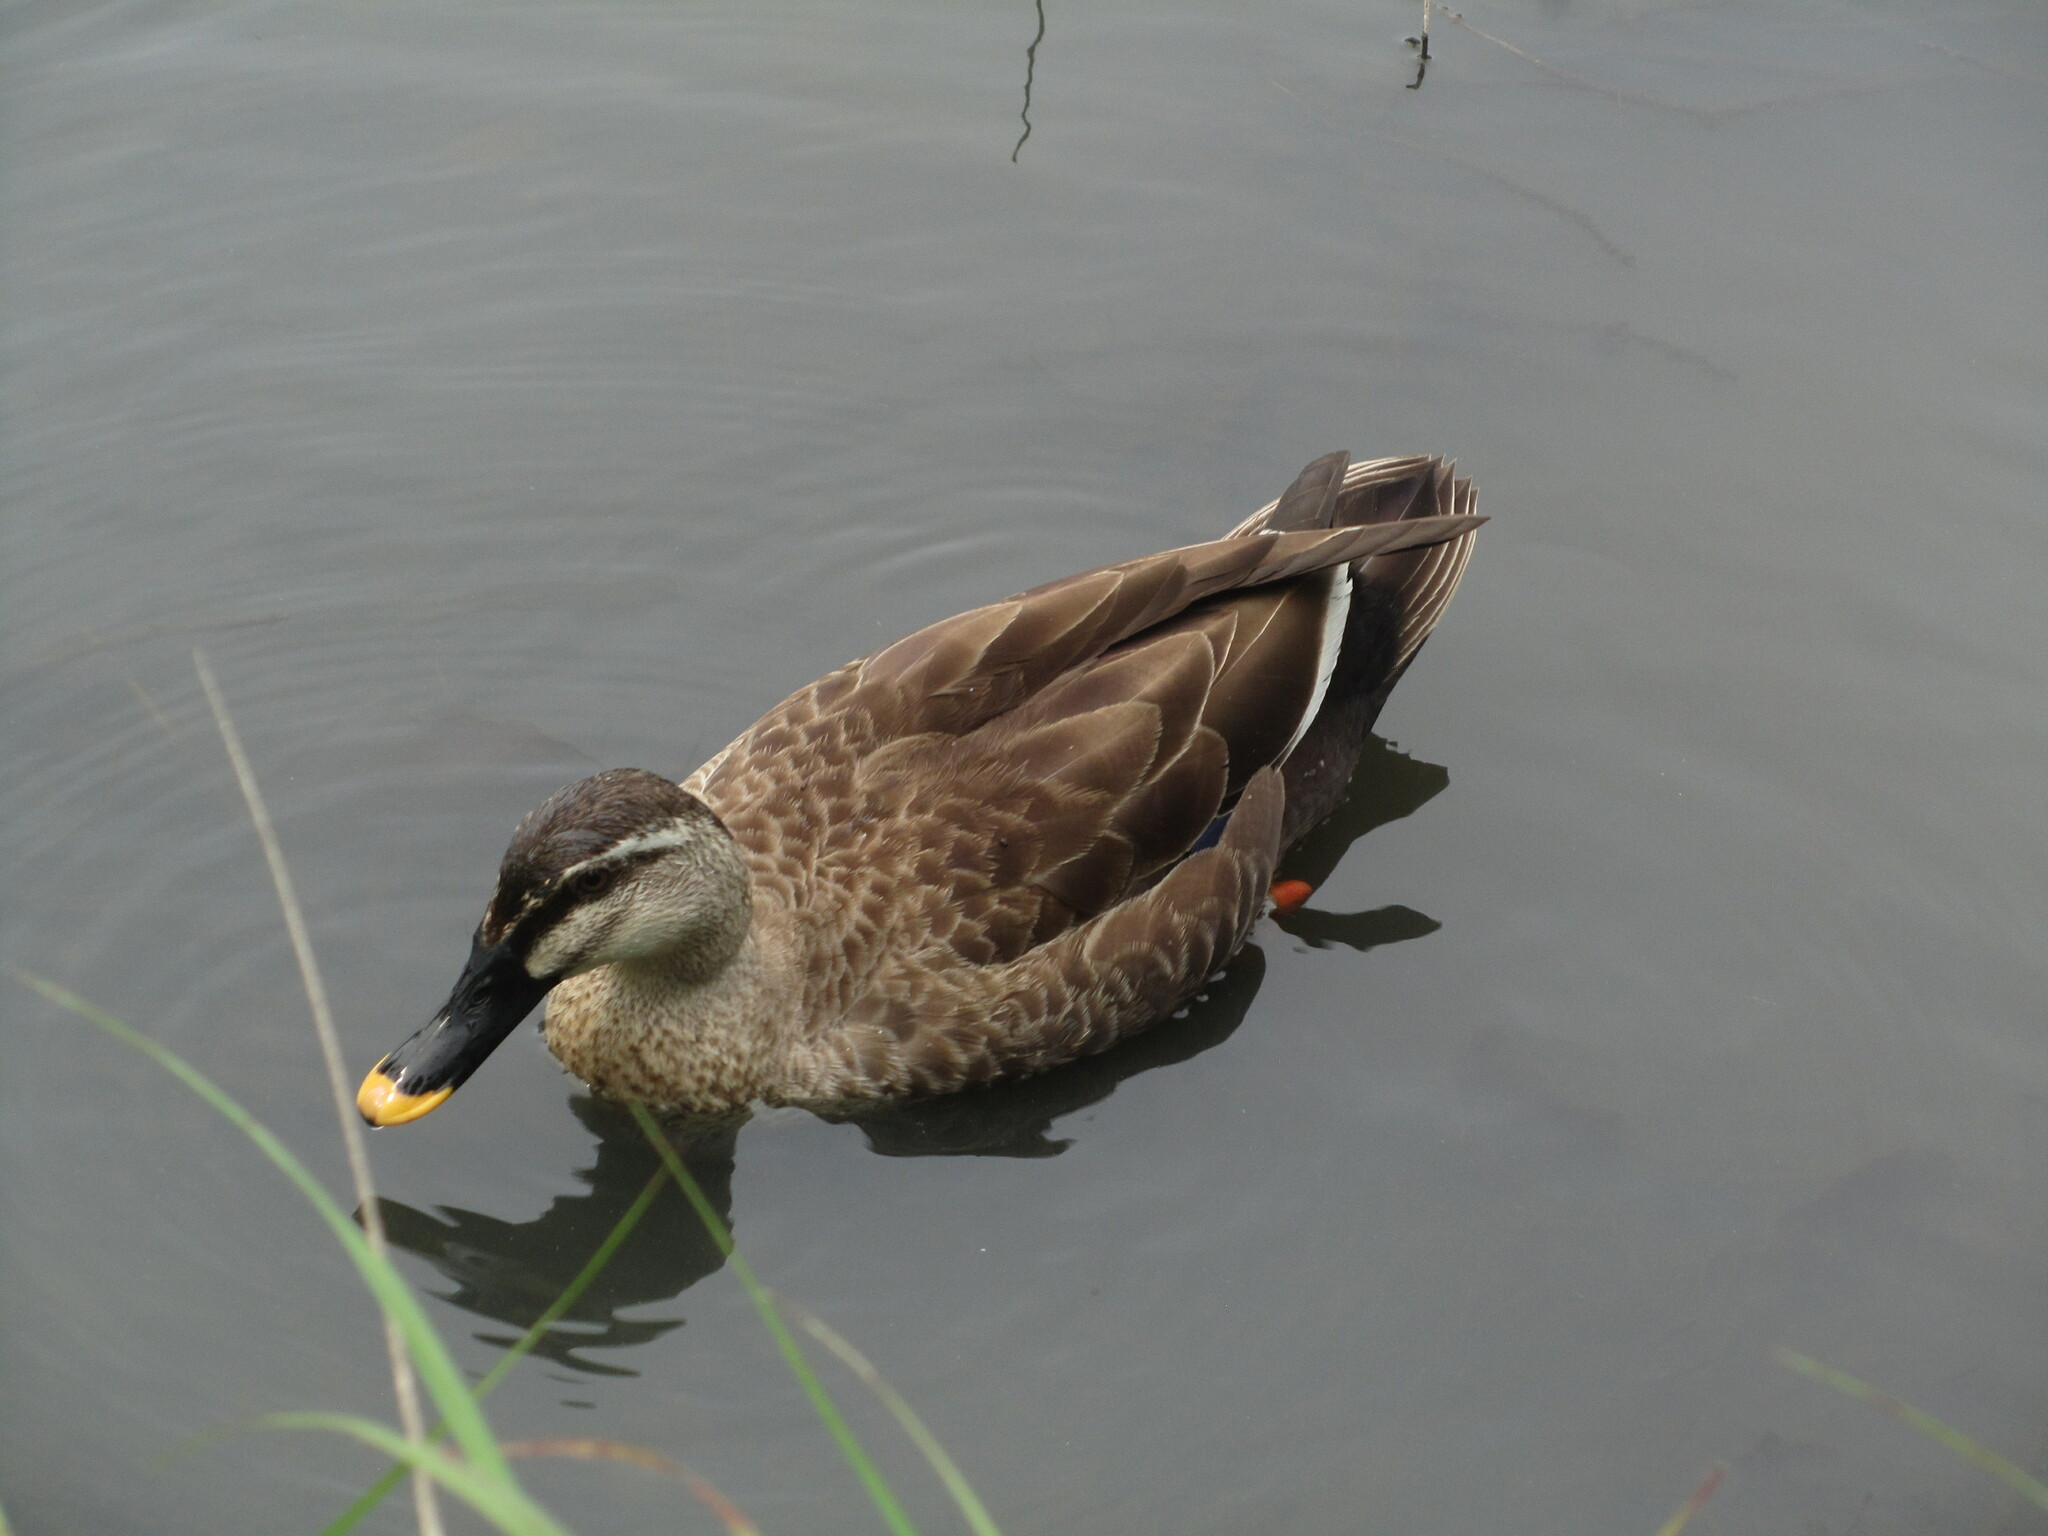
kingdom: Animalia
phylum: Chordata
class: Aves
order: Anseriformes
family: Anatidae
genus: Anas
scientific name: Anas zonorhyncha
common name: Eastern spot-billed duck
